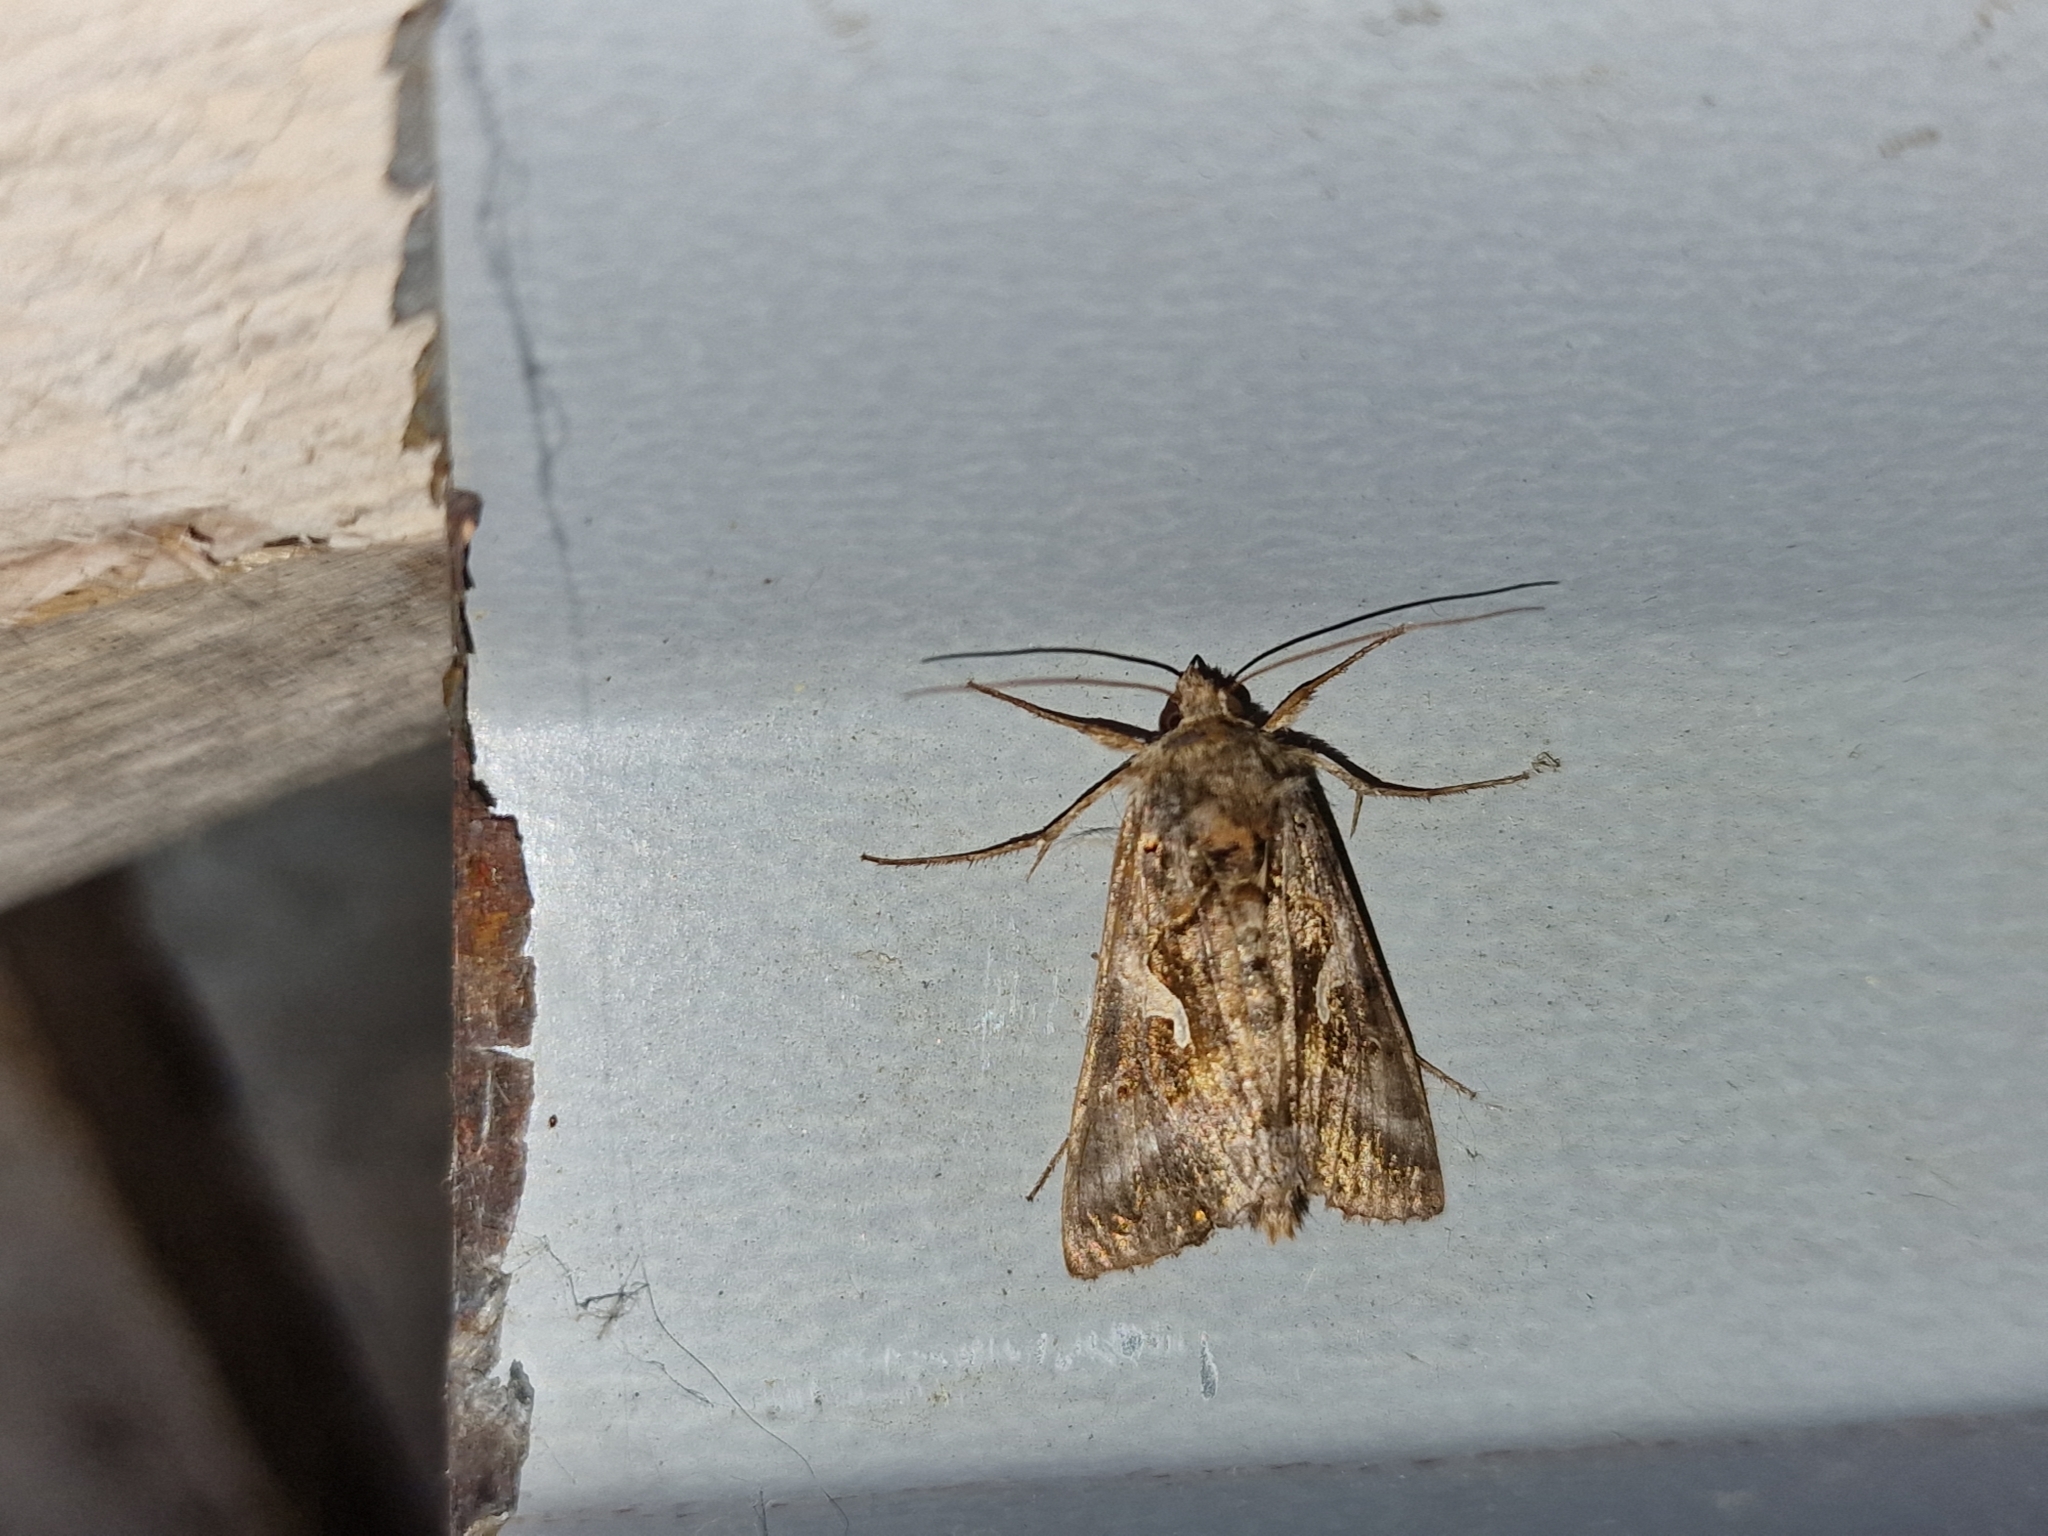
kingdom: Animalia
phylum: Arthropoda
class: Insecta
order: Lepidoptera
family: Noctuidae
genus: Autographa
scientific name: Autographa gamma
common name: Silver y
